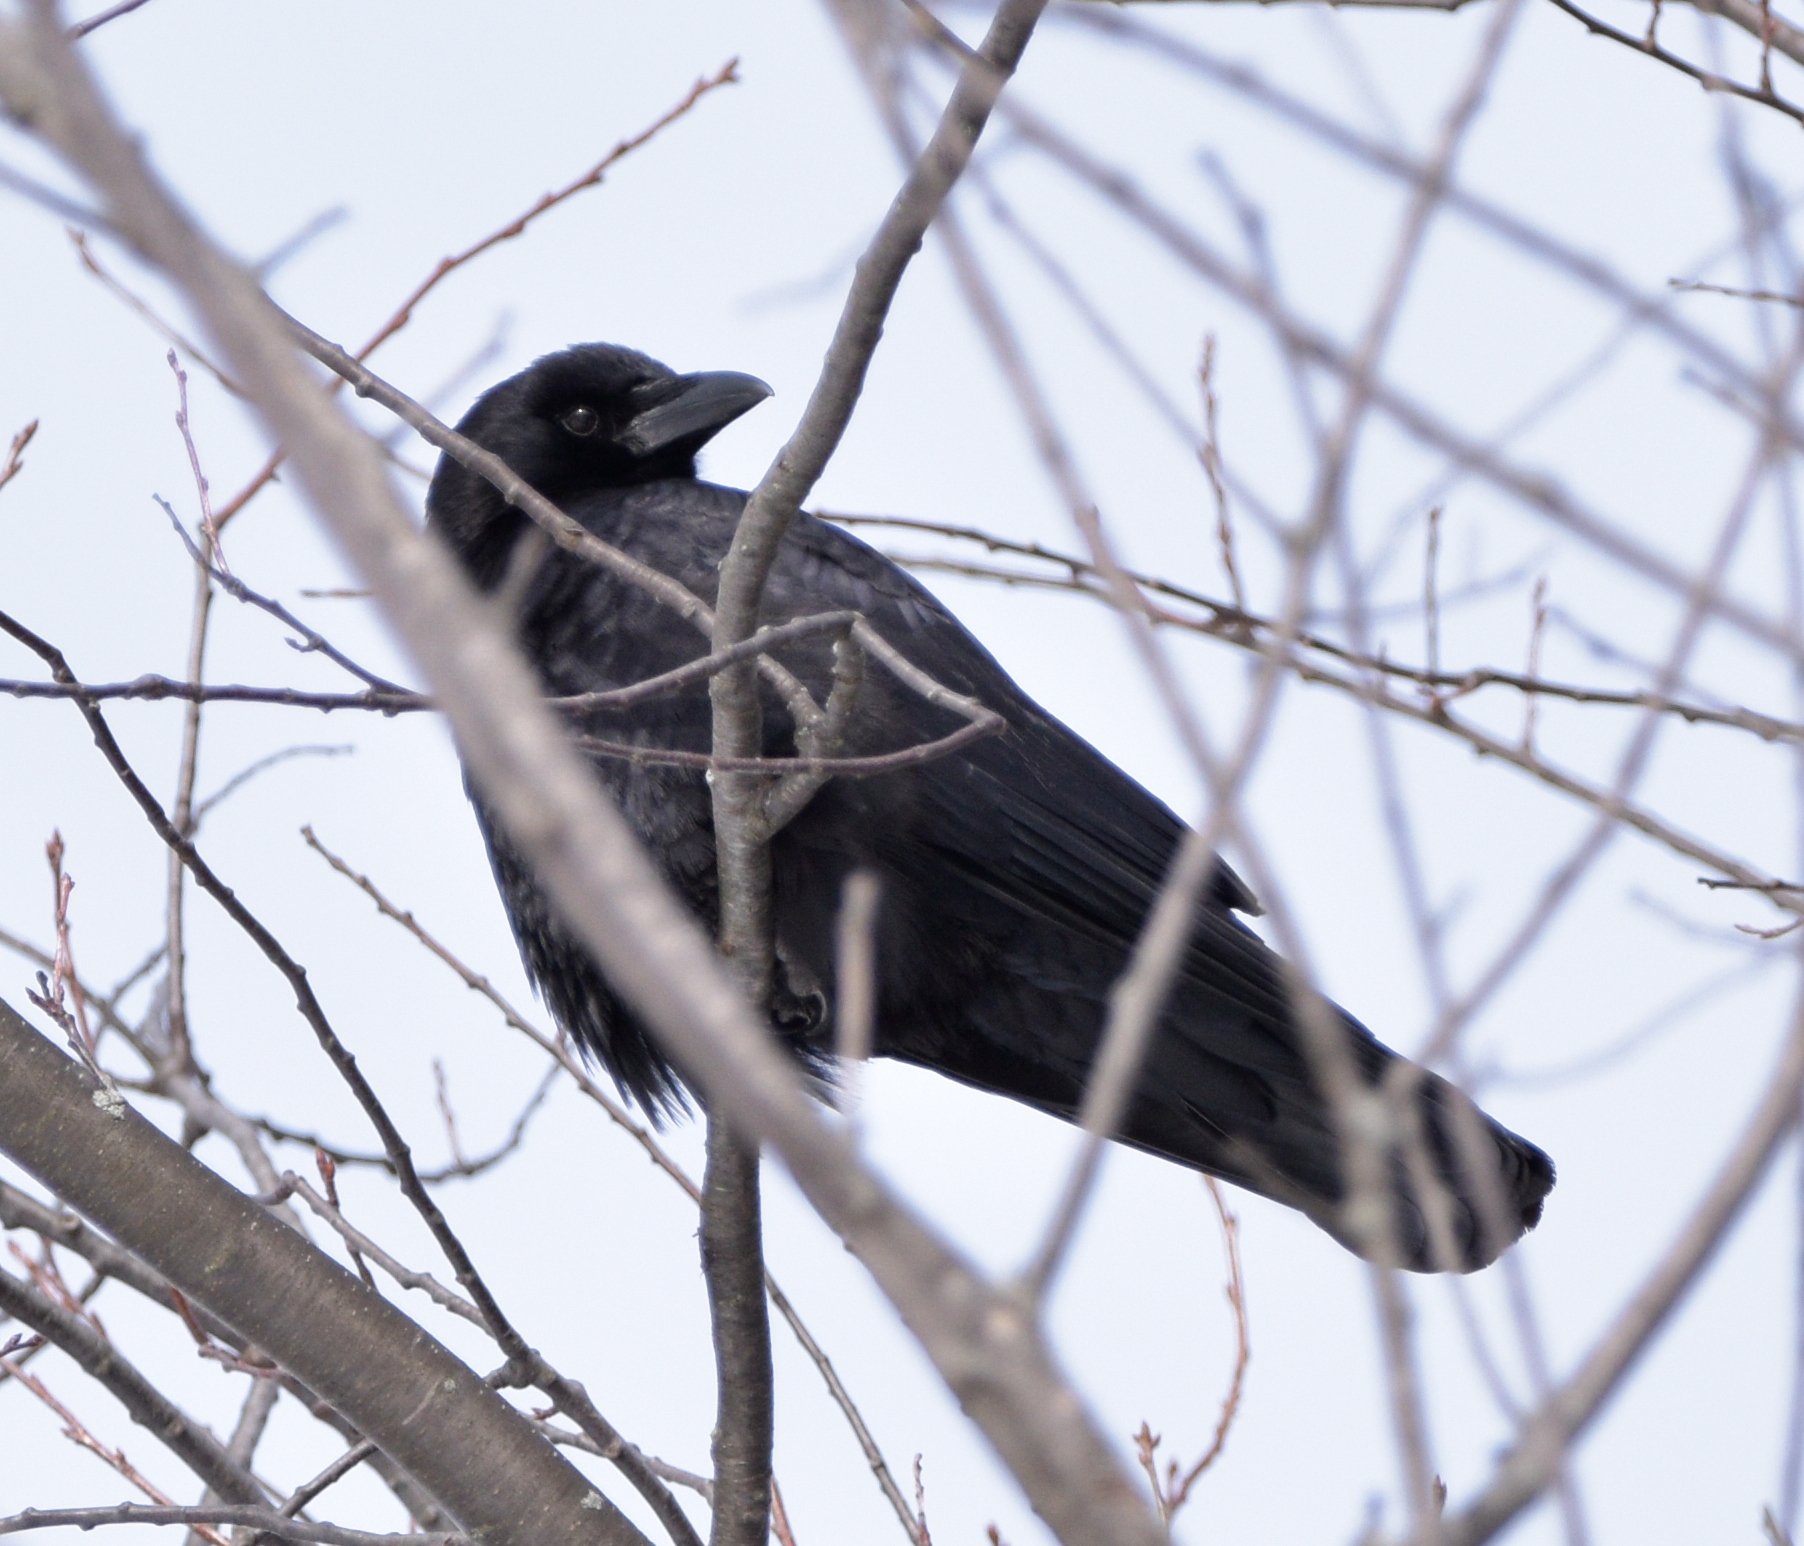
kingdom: Animalia
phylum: Chordata
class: Aves
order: Passeriformes
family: Corvidae
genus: Corvus
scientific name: Corvus brachyrhynchos
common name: American crow
